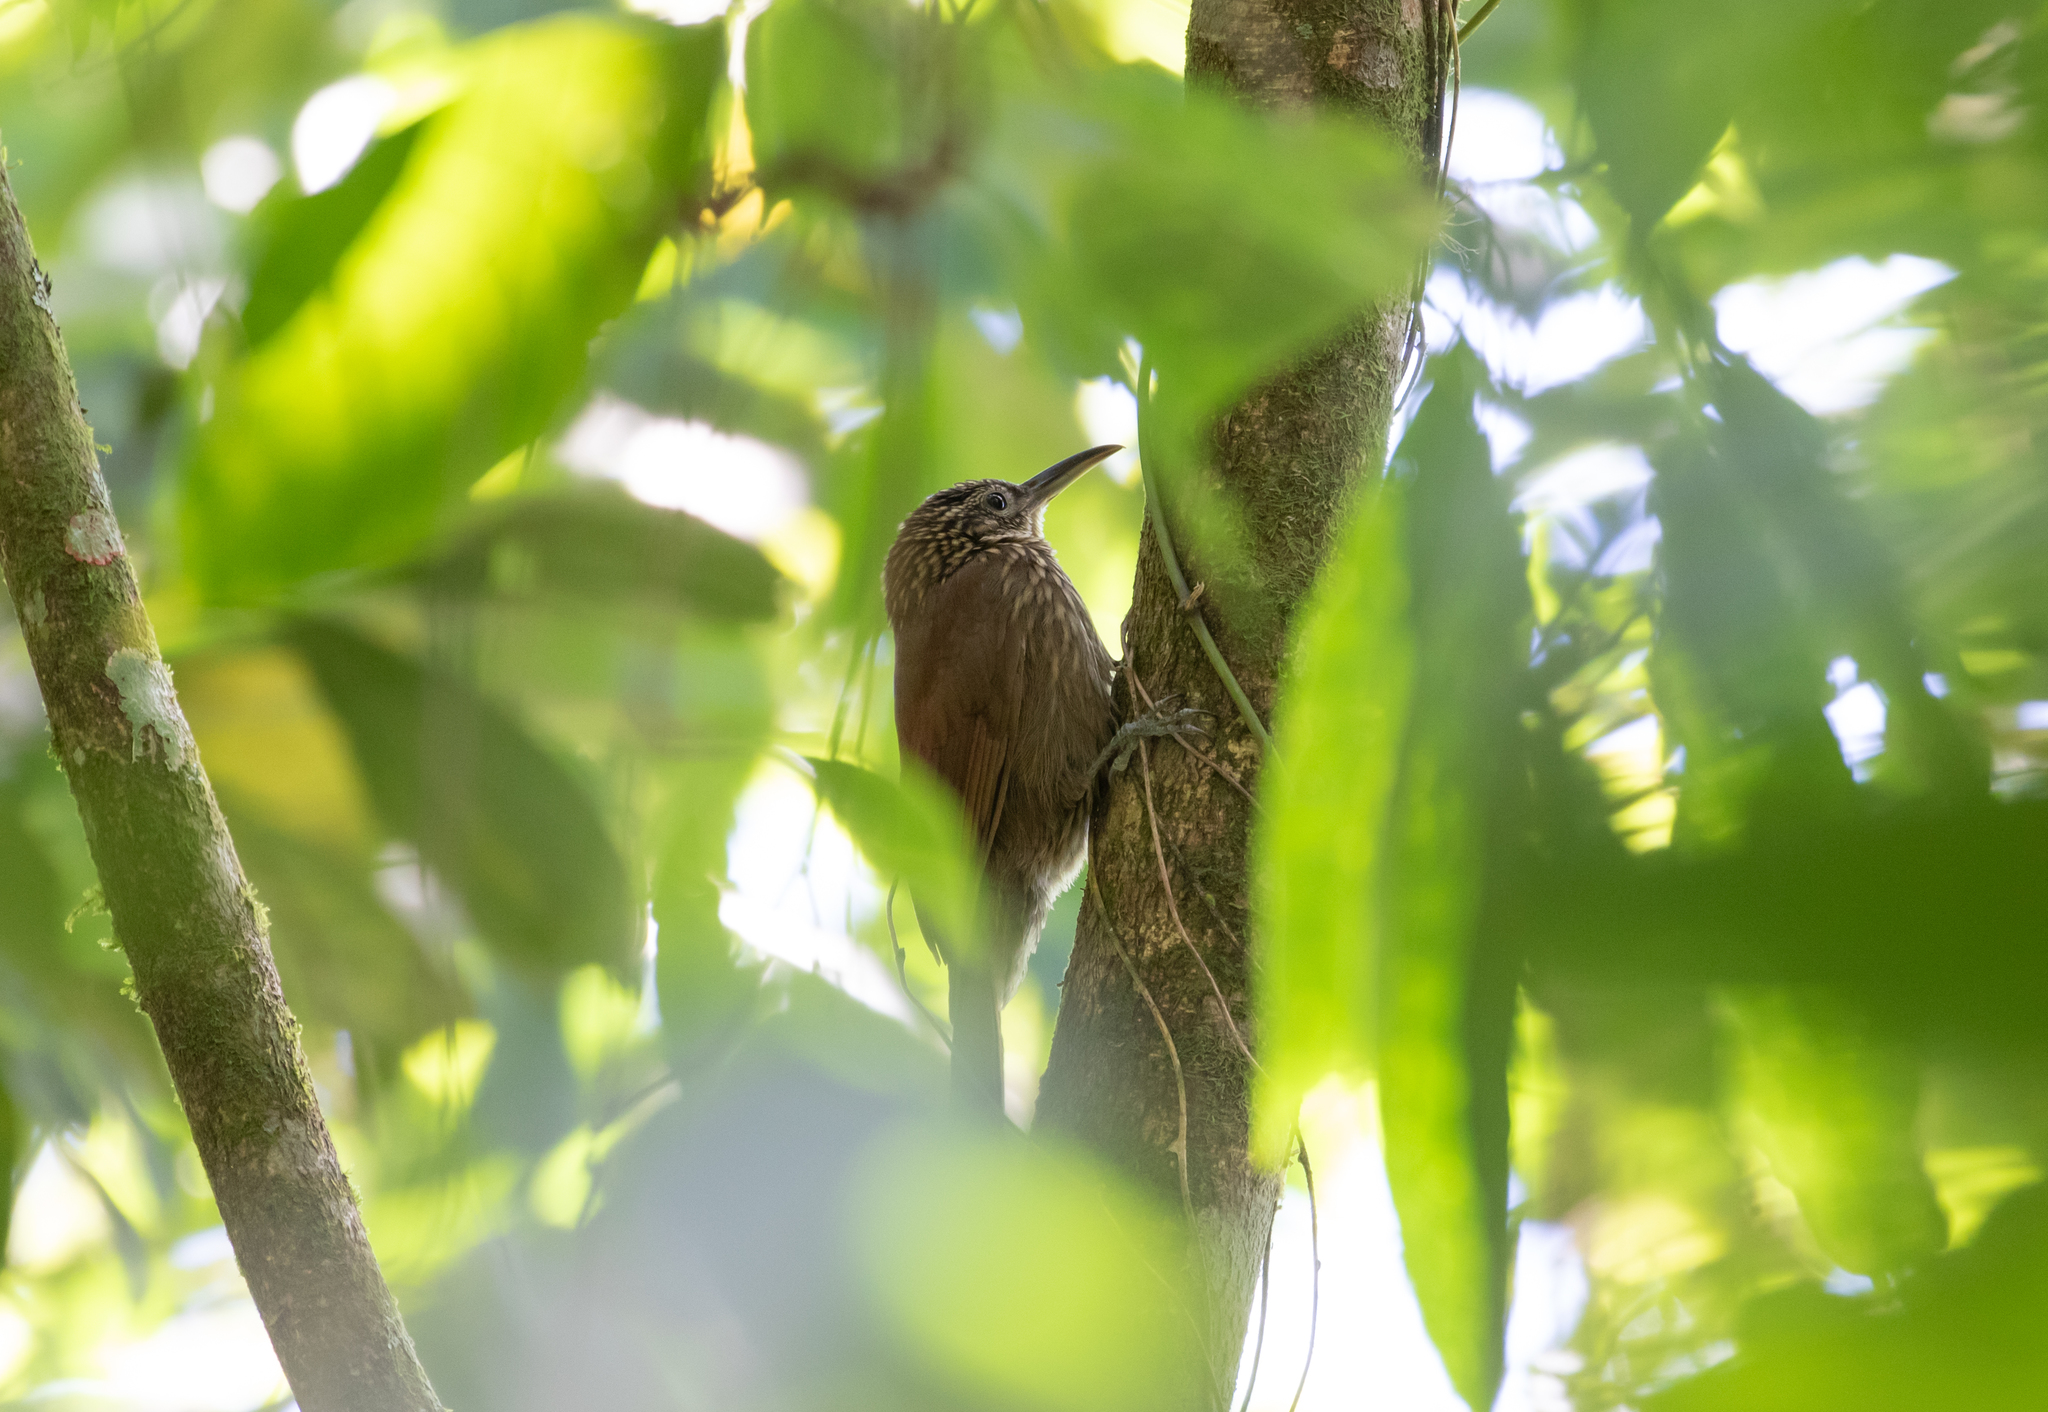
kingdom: Animalia
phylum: Chordata
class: Aves
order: Passeriformes
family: Furnariidae
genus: Xiphorhynchus
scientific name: Xiphorhynchus susurrans
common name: Cocoa woodcreeper
